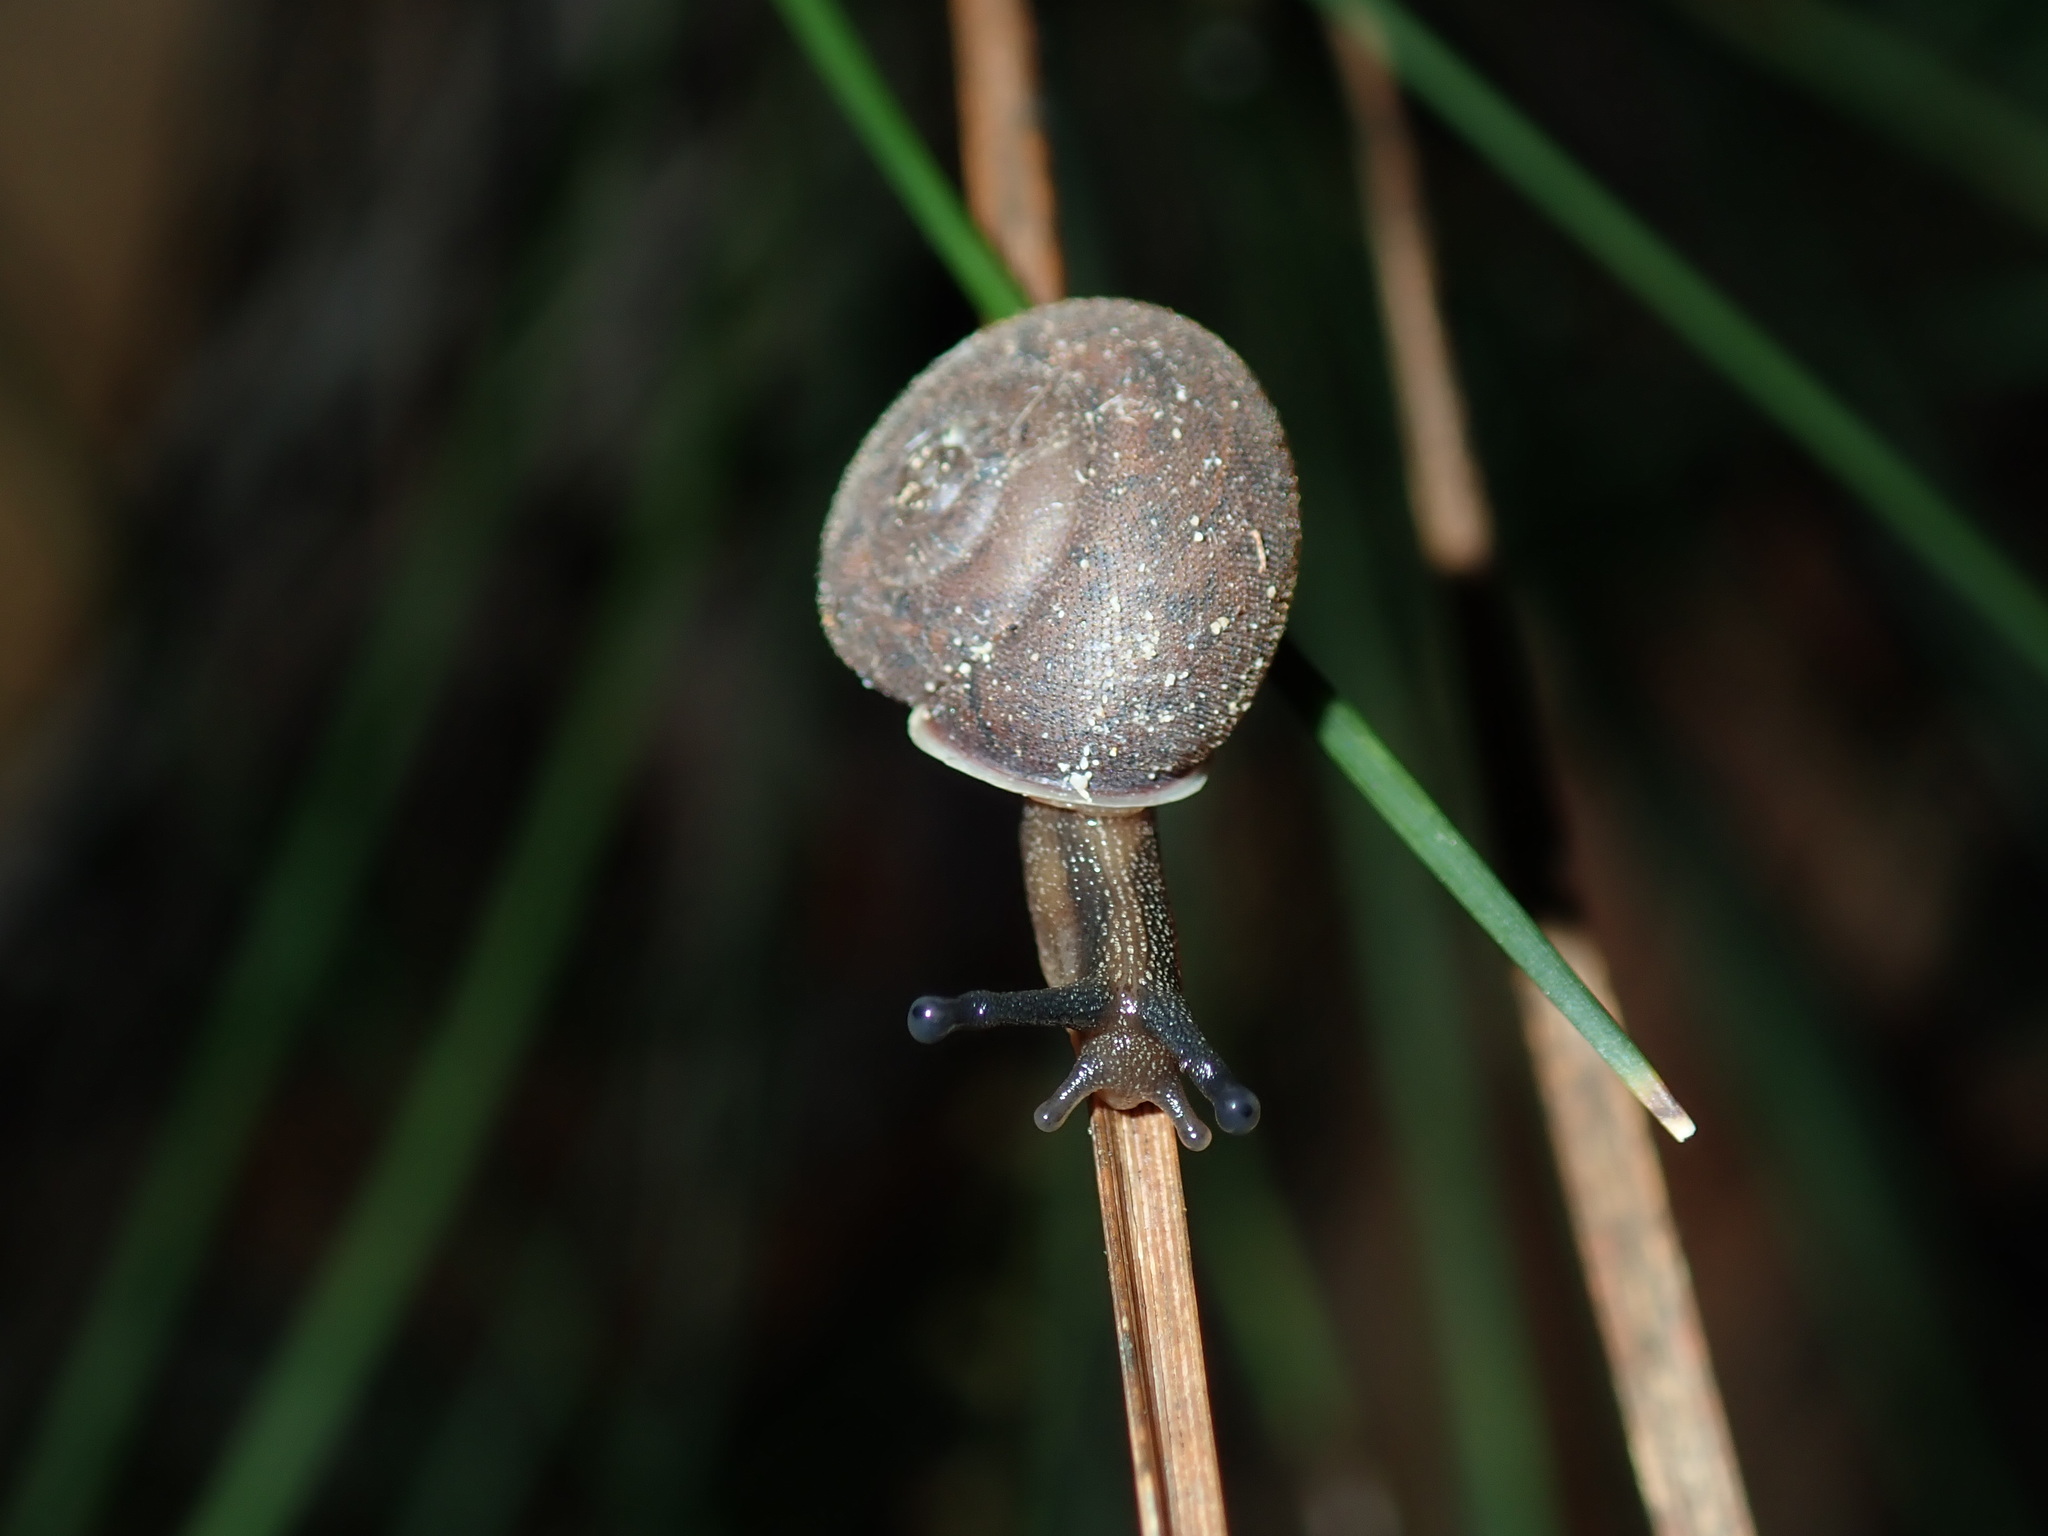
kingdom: Animalia
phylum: Mollusca
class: Gastropoda
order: Stylommatophora
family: Camaenidae
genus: Austrochloritis
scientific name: Austrochloritis sydneyensis
